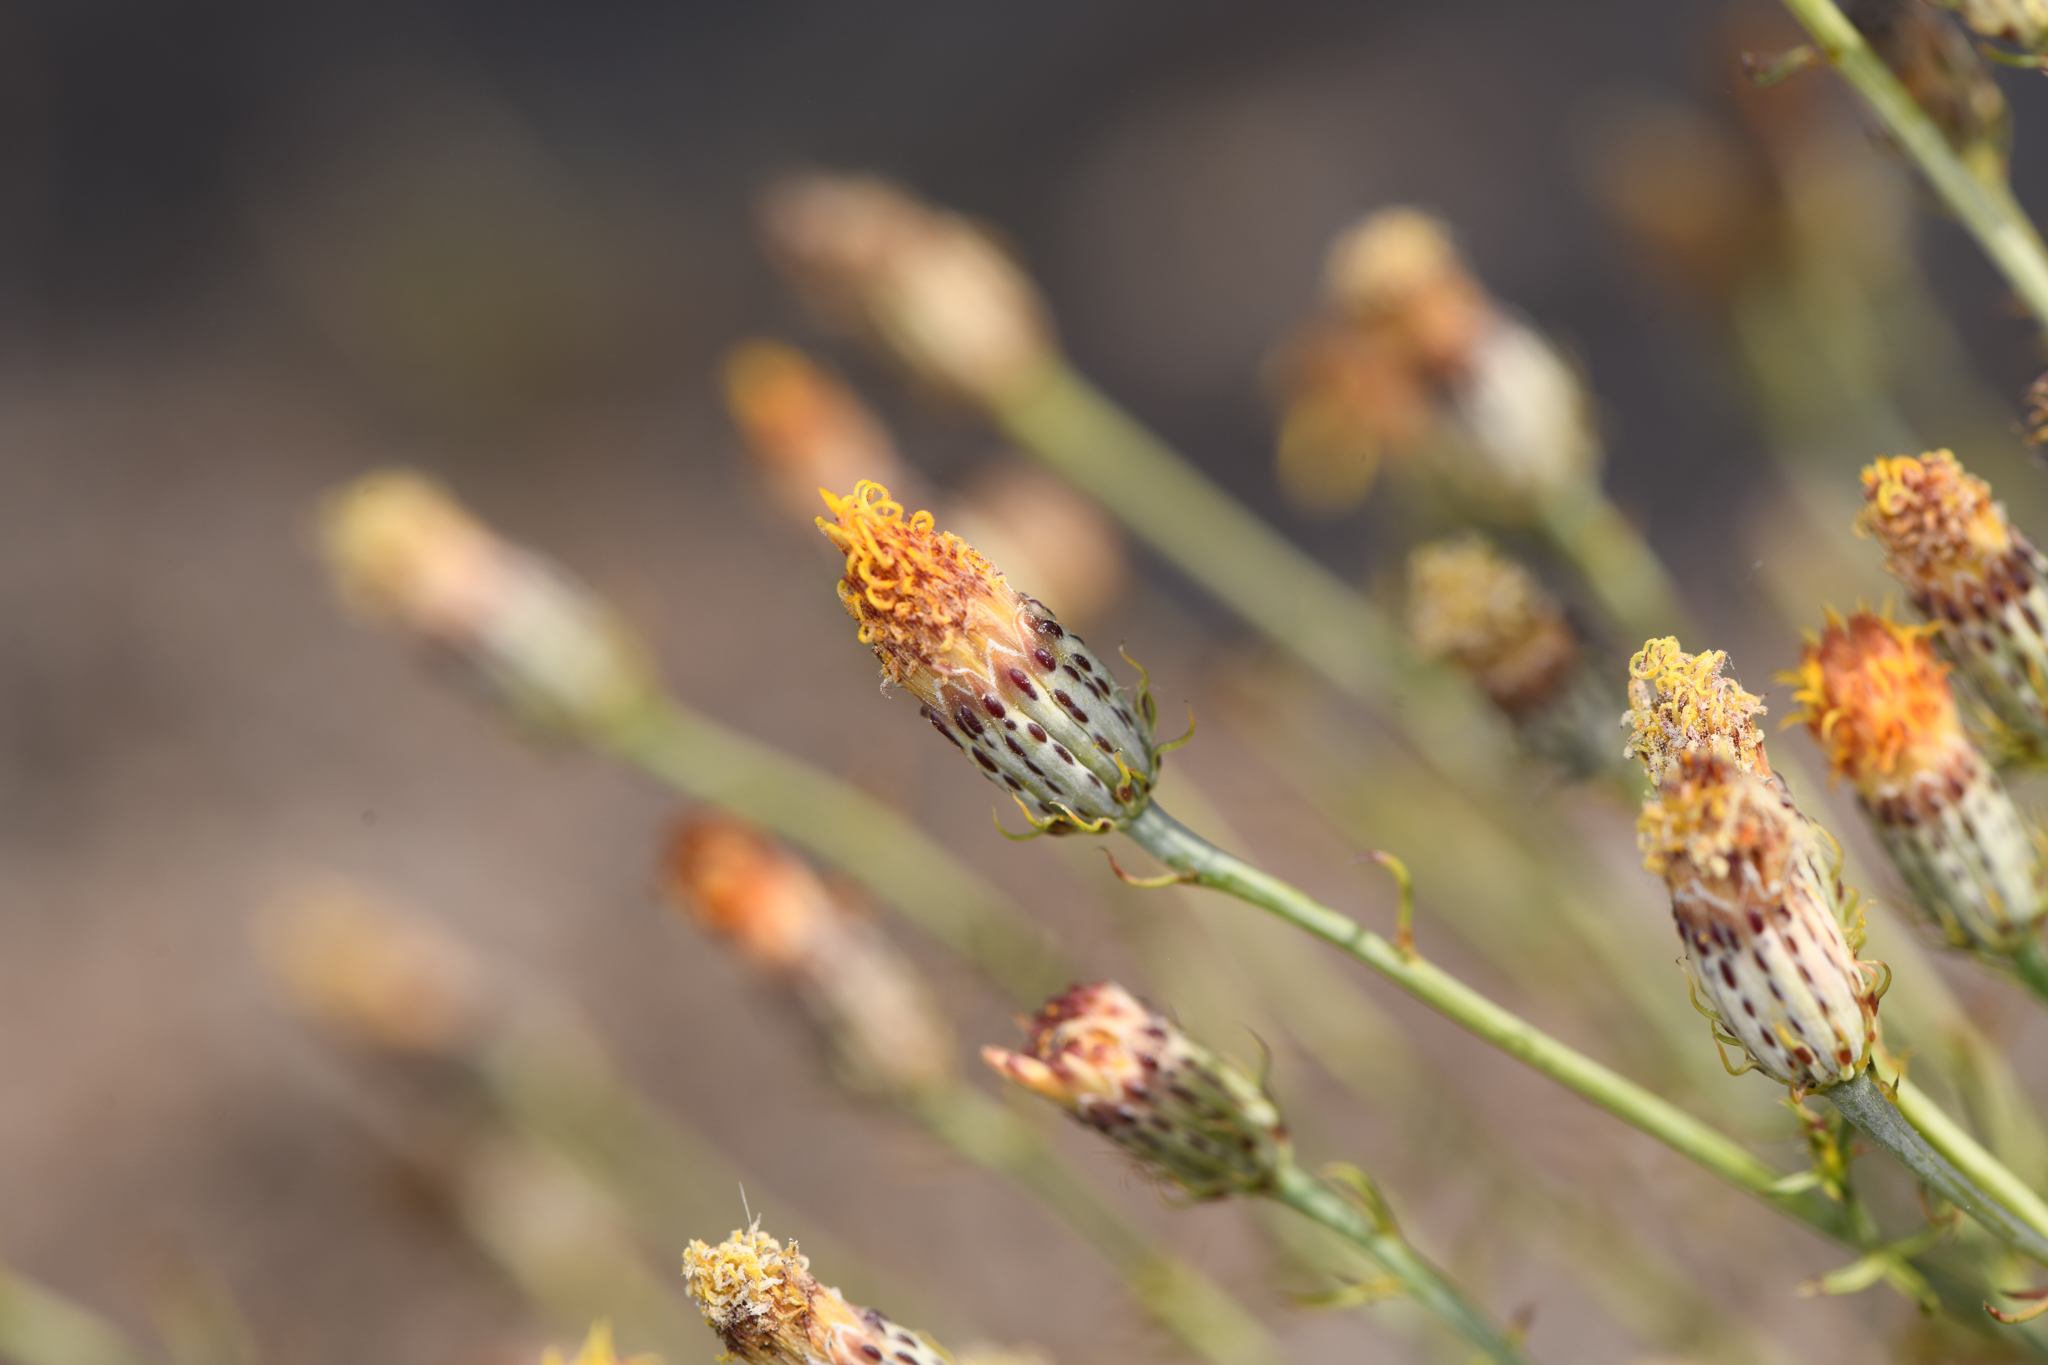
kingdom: Plantae
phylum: Tracheophyta
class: Magnoliopsida
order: Asterales
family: Asteraceae
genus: Adenophyllum
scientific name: Adenophyllum porophylloides
